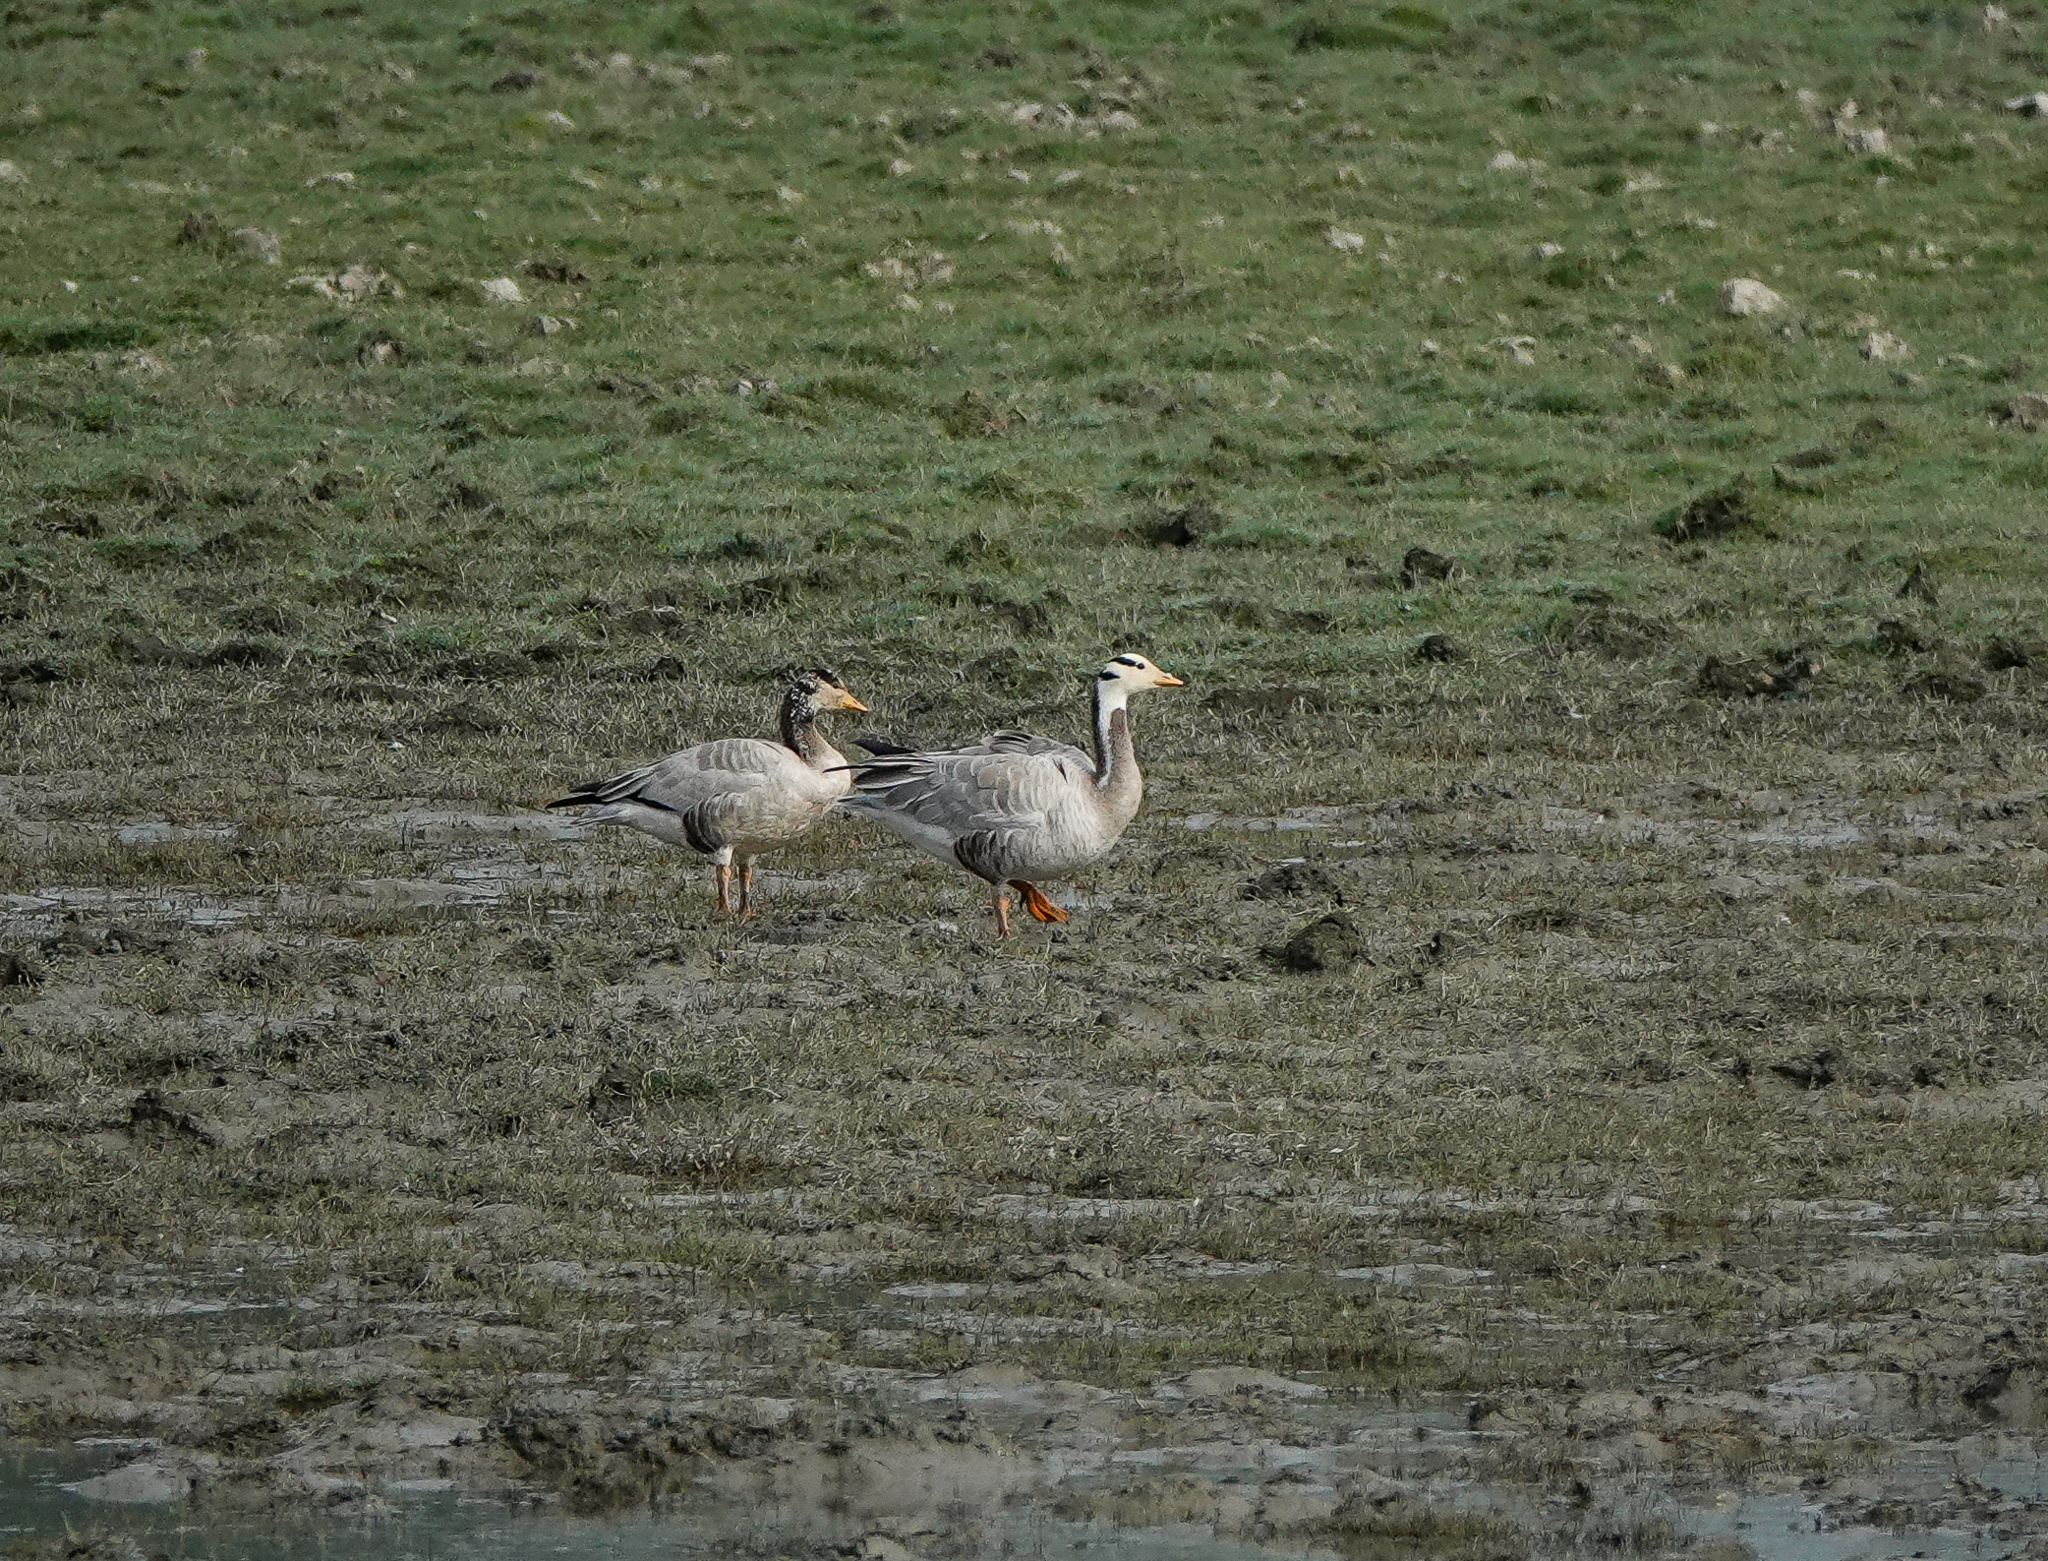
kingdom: Animalia
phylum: Chordata
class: Aves
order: Anseriformes
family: Anatidae
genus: Anser
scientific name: Anser indicus
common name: Bar-headed goose
